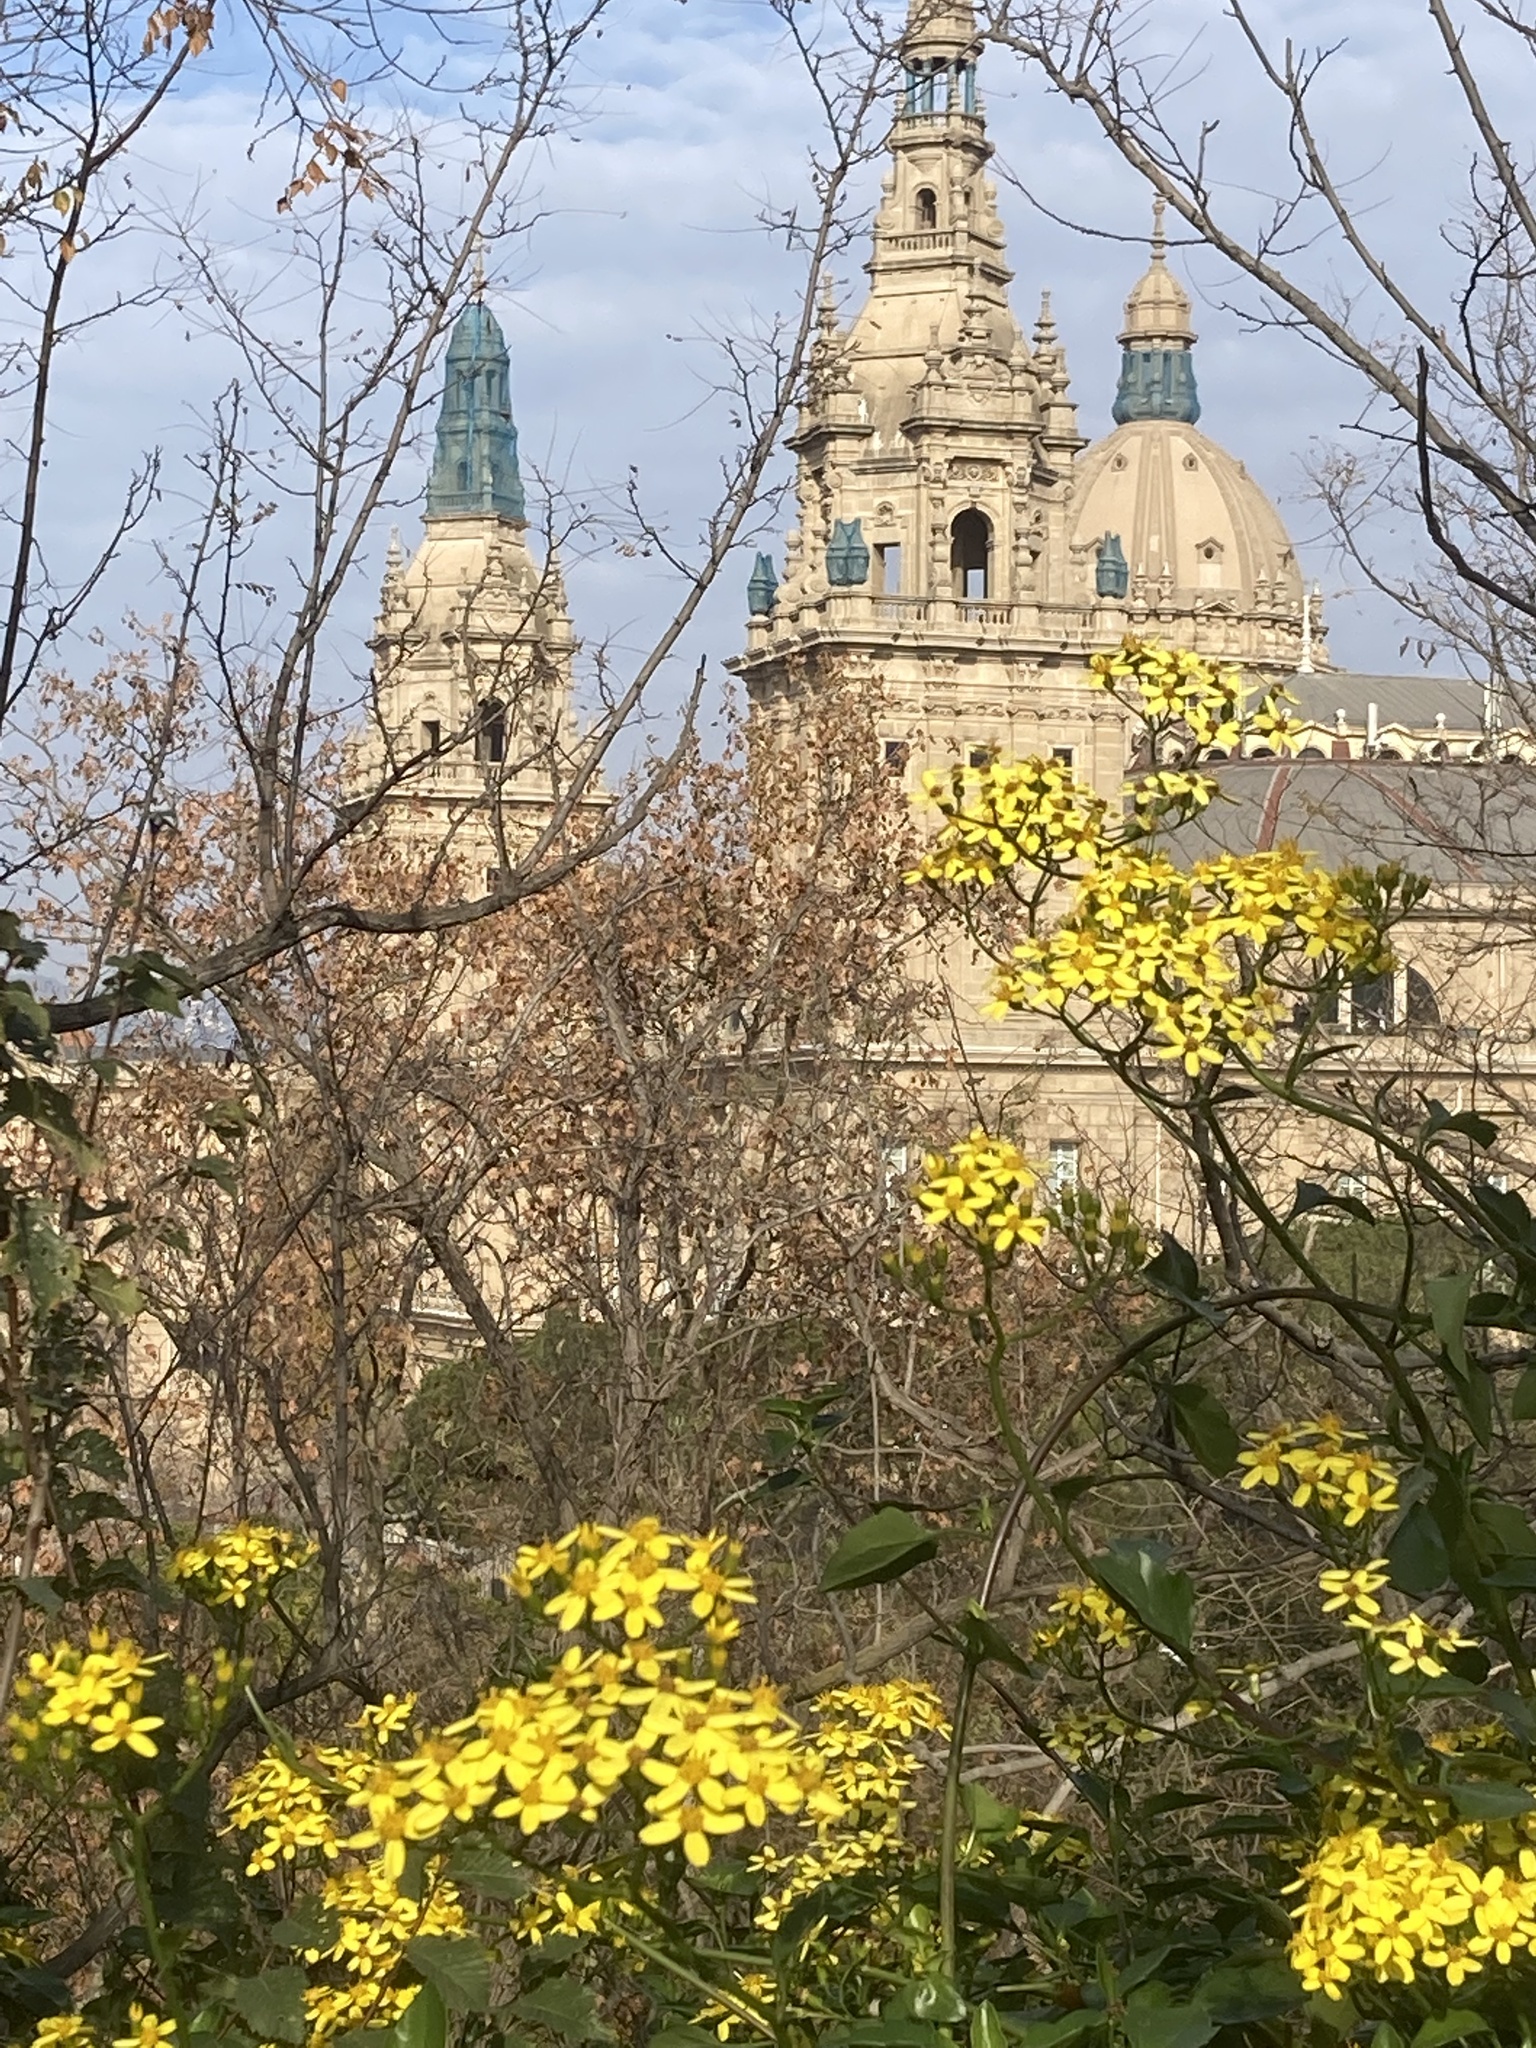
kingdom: Plantae
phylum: Tracheophyta
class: Magnoliopsida
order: Asterales
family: Asteraceae
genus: Senecio
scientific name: Senecio angulatus
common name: Climbing groundsel
